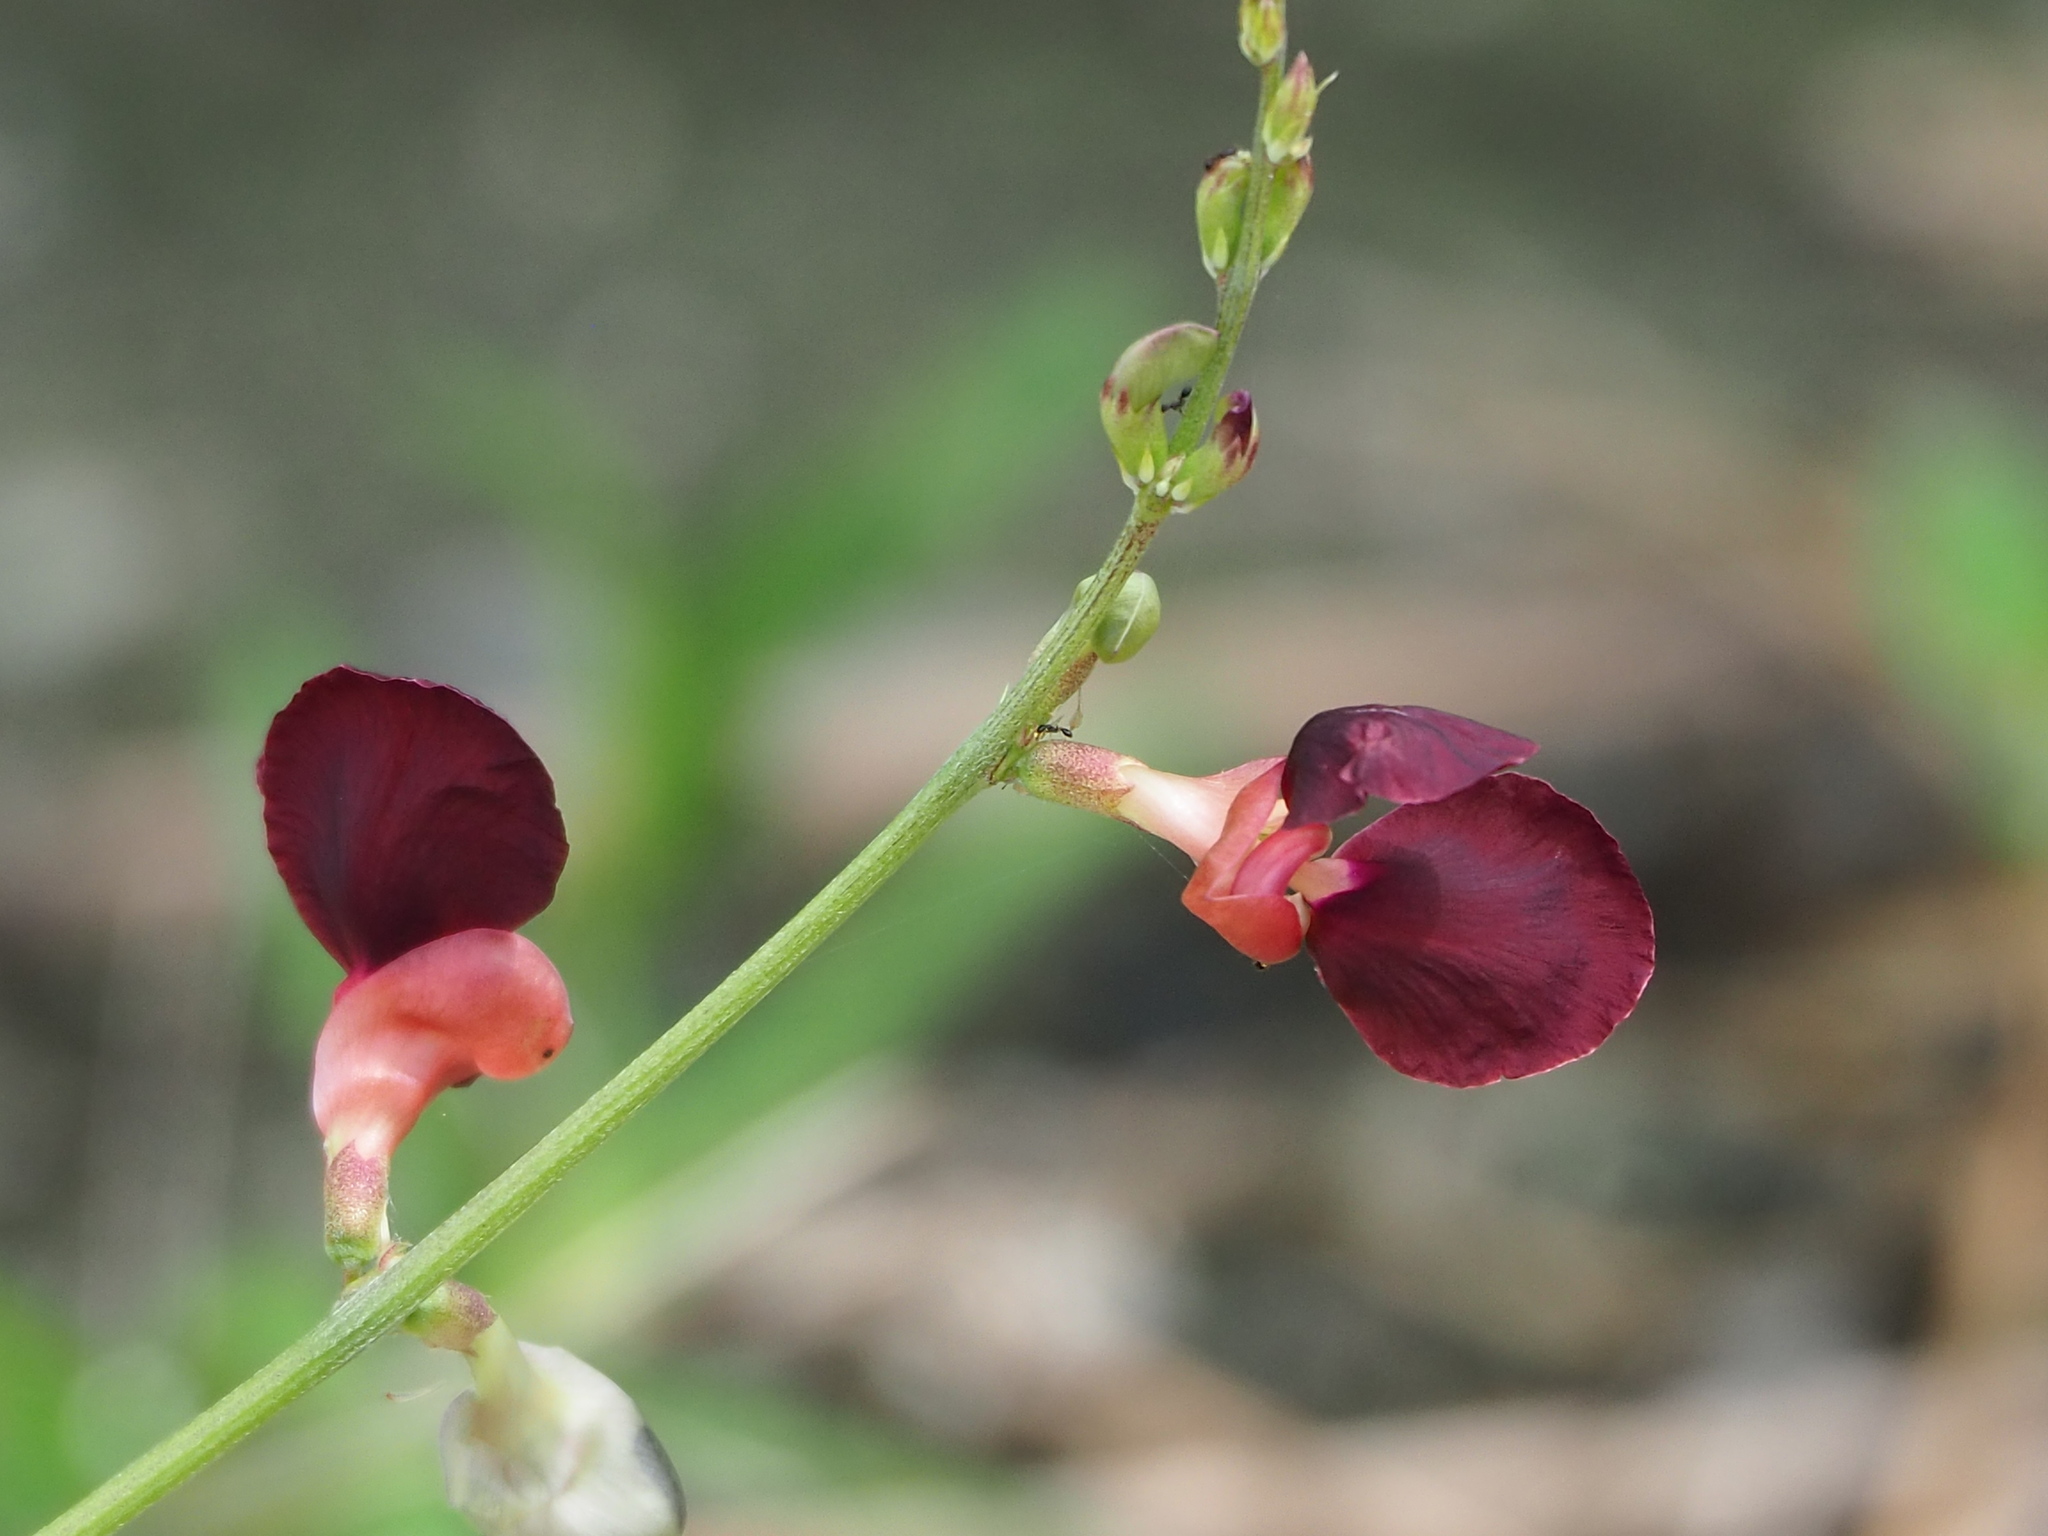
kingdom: Plantae
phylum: Tracheophyta
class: Magnoliopsida
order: Fabales
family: Fabaceae
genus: Macroptilium
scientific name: Macroptilium lathyroides
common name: Wild bushbean
